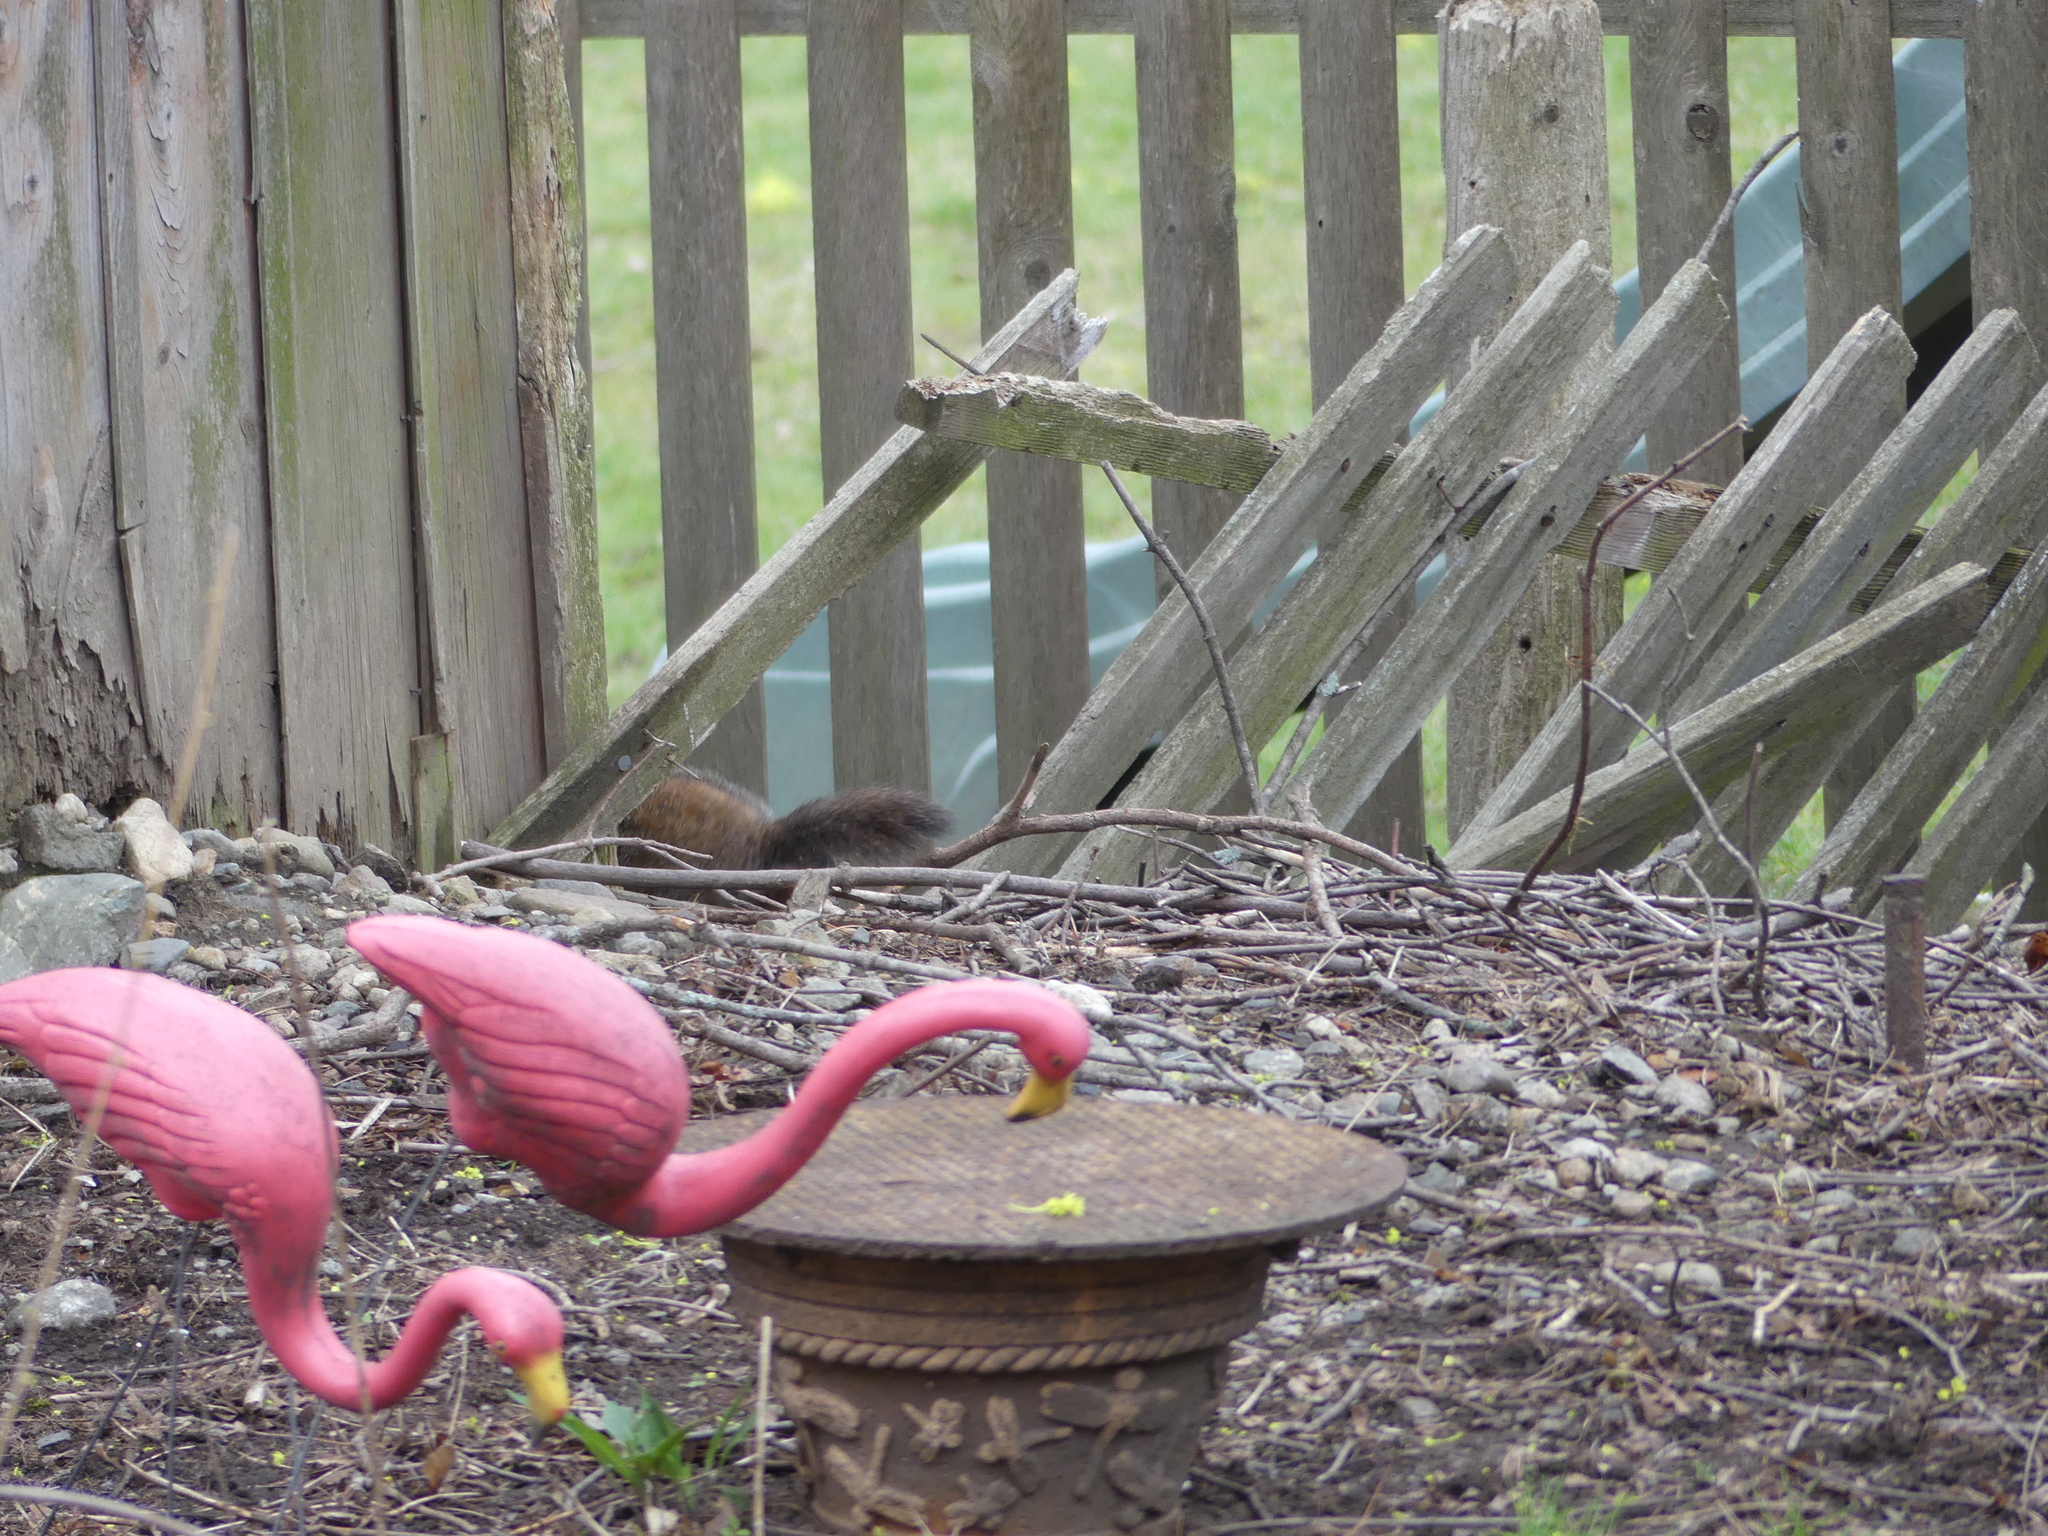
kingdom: Animalia
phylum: Chordata
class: Mammalia
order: Rodentia
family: Sciuridae
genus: Marmota
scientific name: Marmota monax
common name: Groundhog
